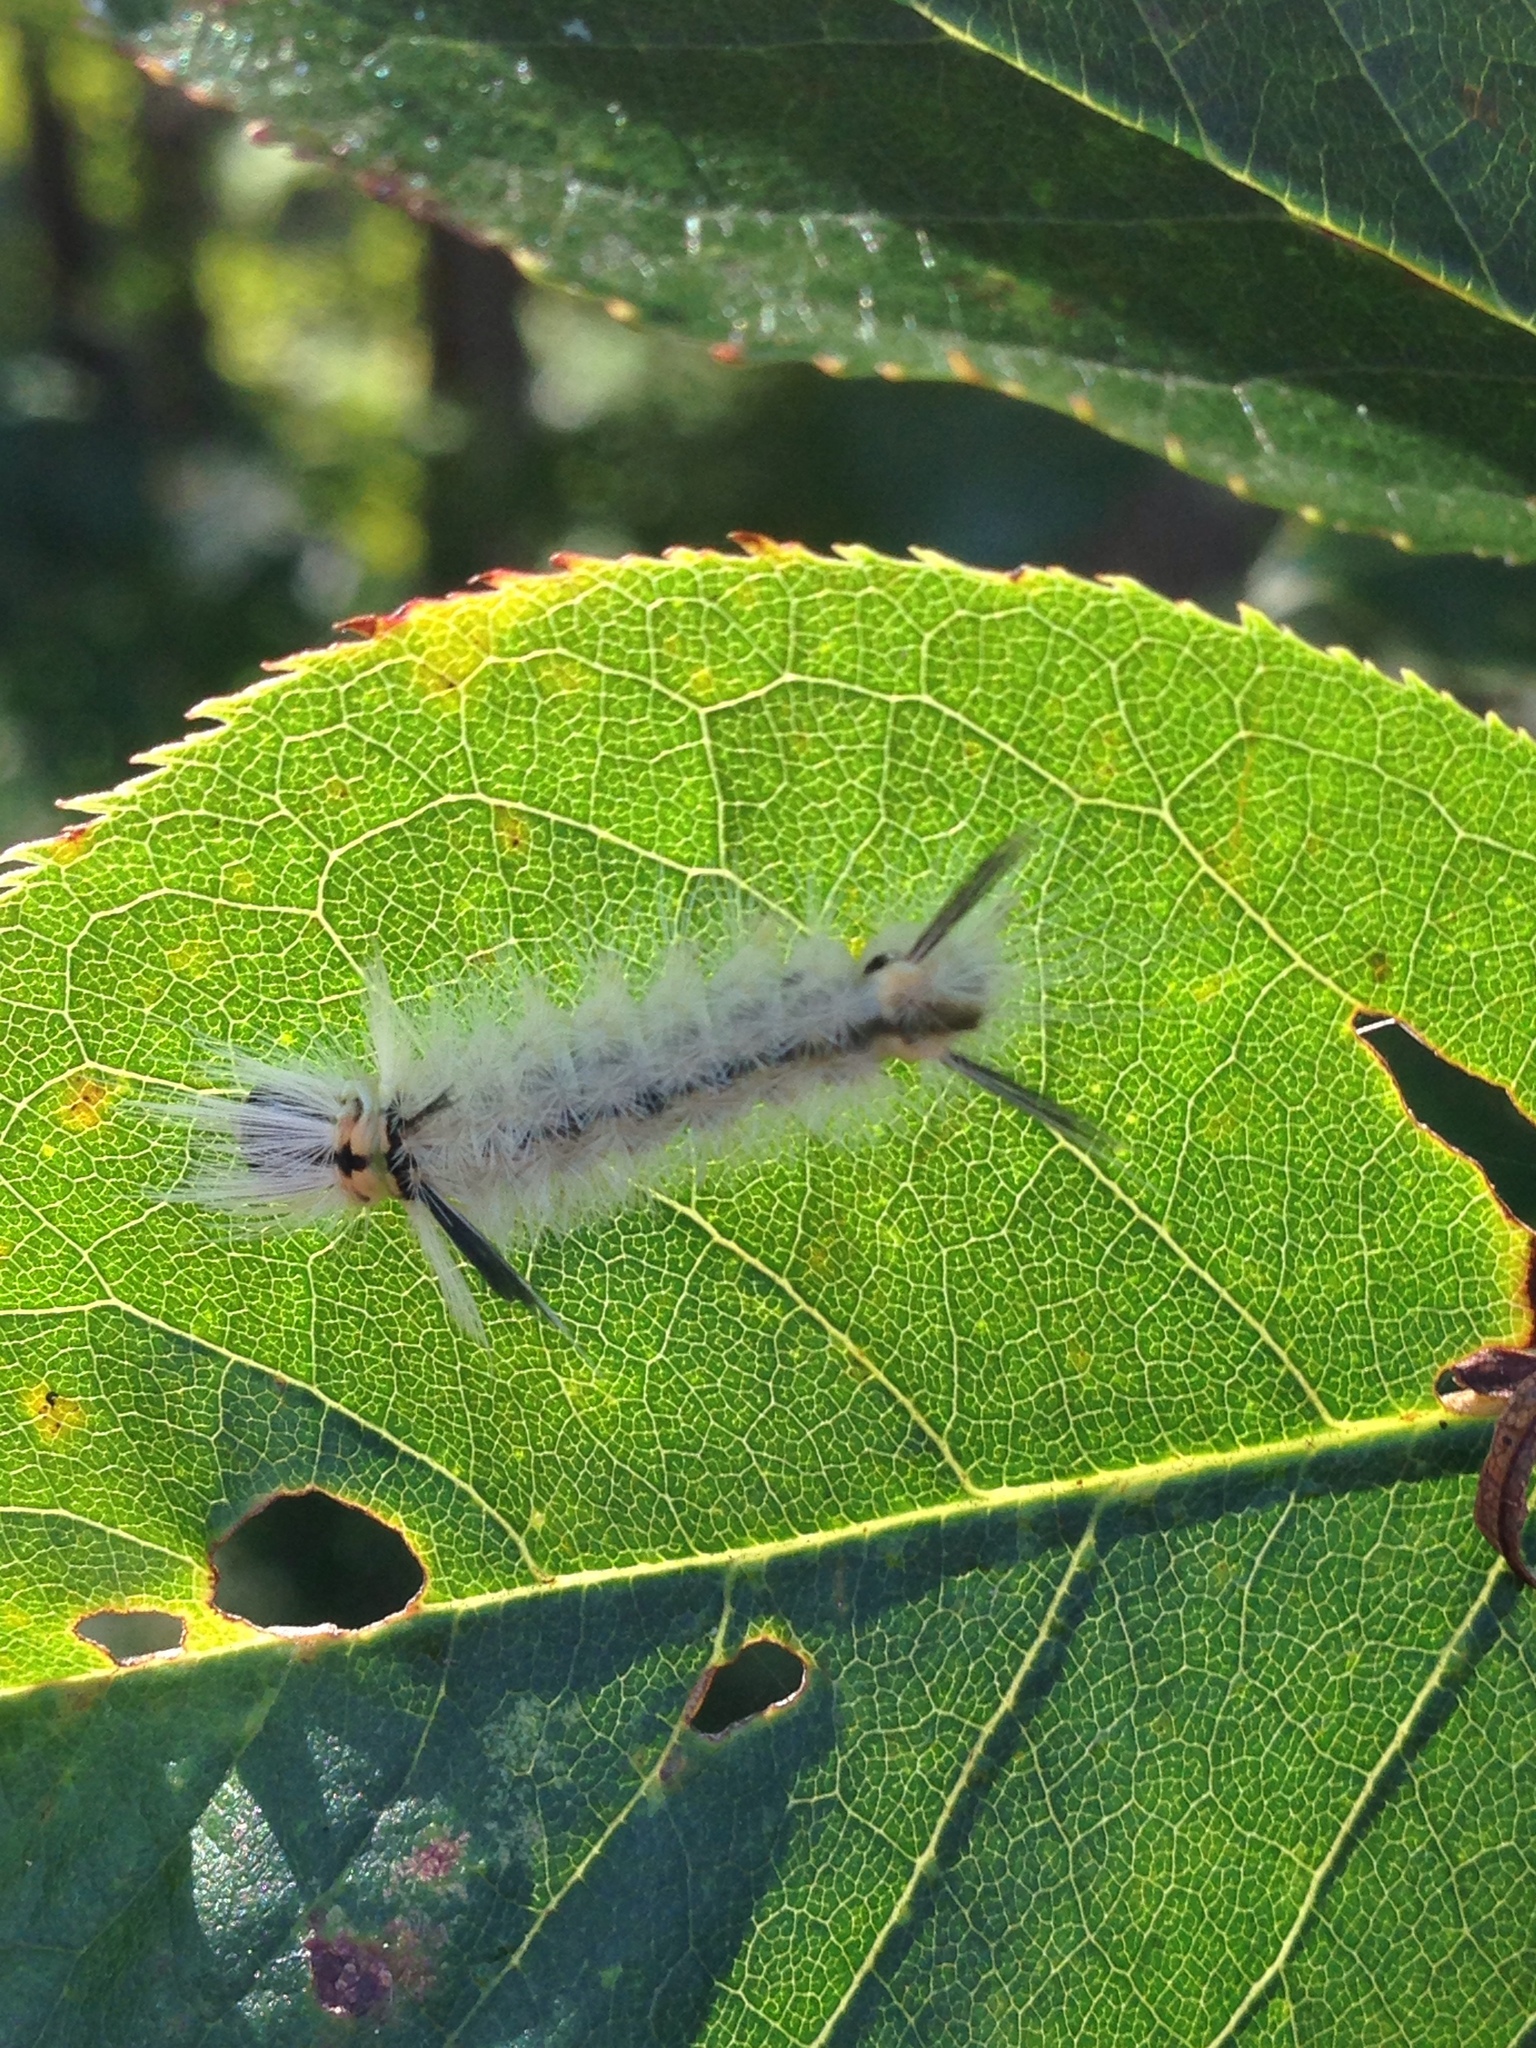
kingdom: Animalia
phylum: Arthropoda
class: Insecta
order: Lepidoptera
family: Erebidae
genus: Halysidota
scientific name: Halysidota tessellaris
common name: Banded tussock moth
